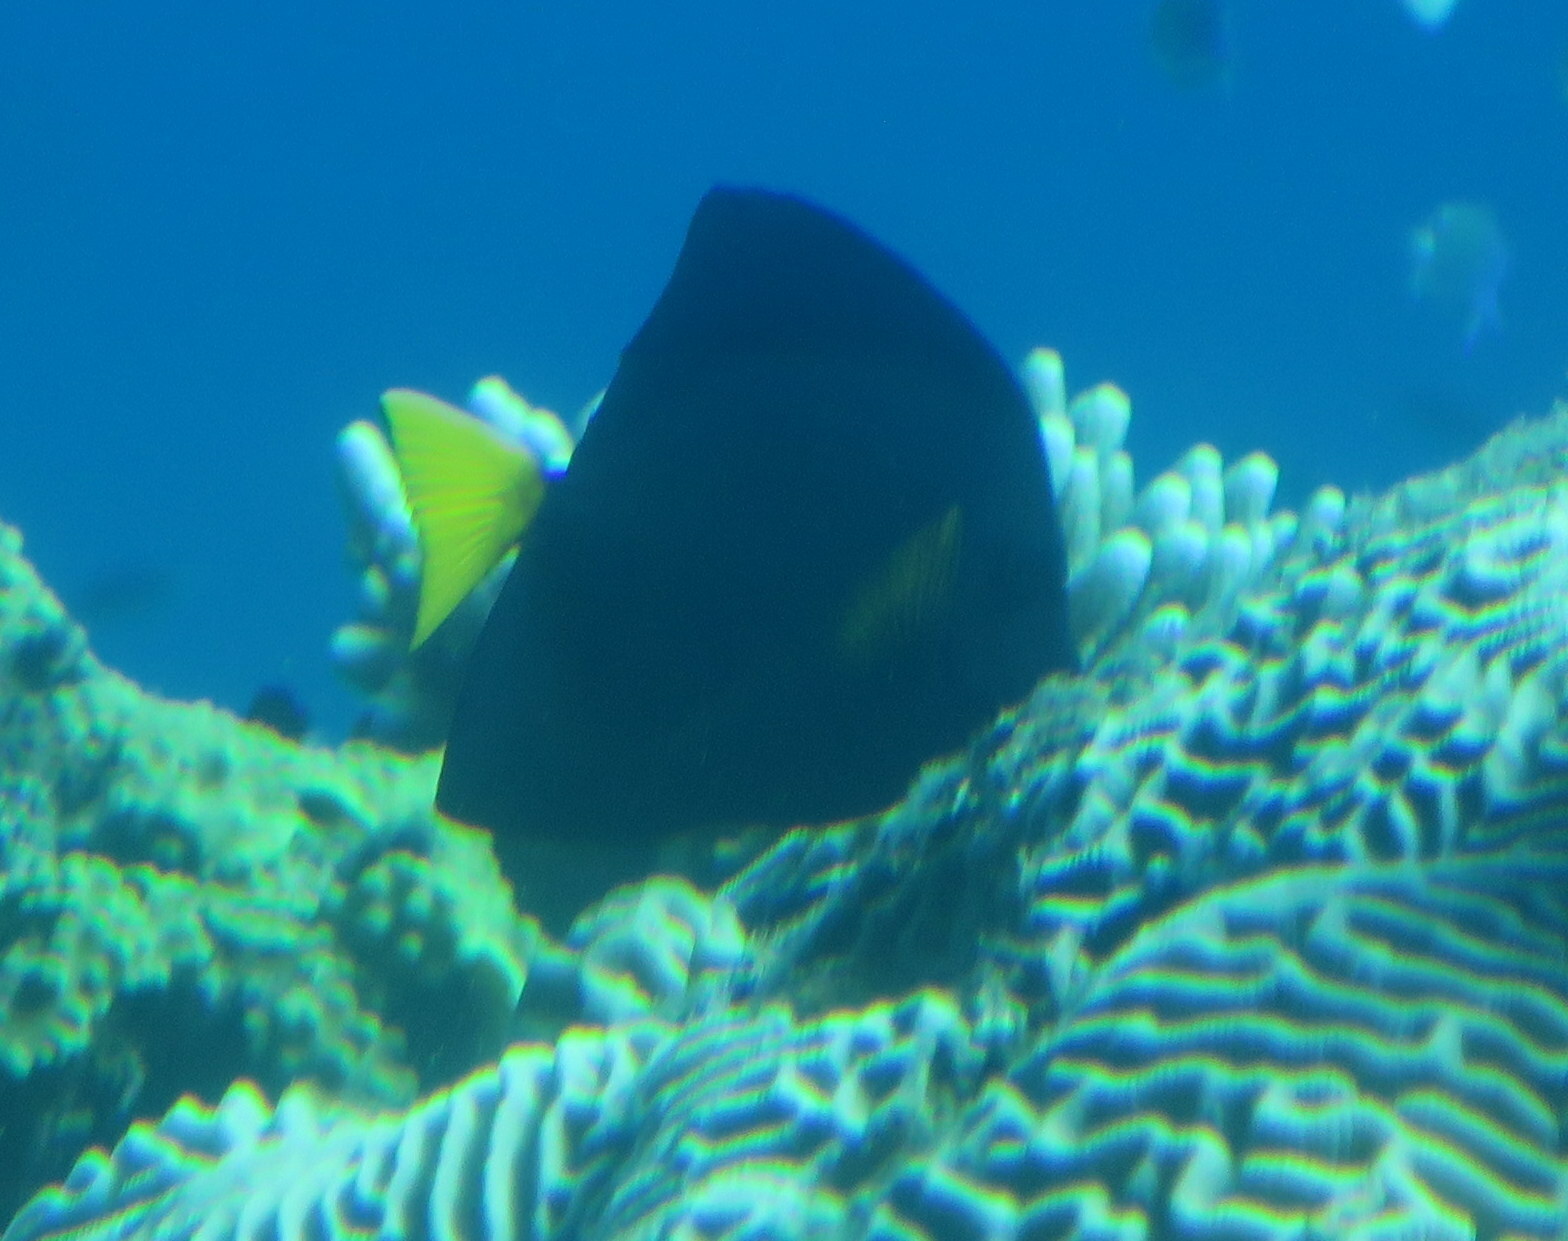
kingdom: Animalia
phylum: Chordata
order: Perciformes
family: Acanthuridae
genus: Zebrasoma
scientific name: Zebrasoma xanthurum
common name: Purple tang
